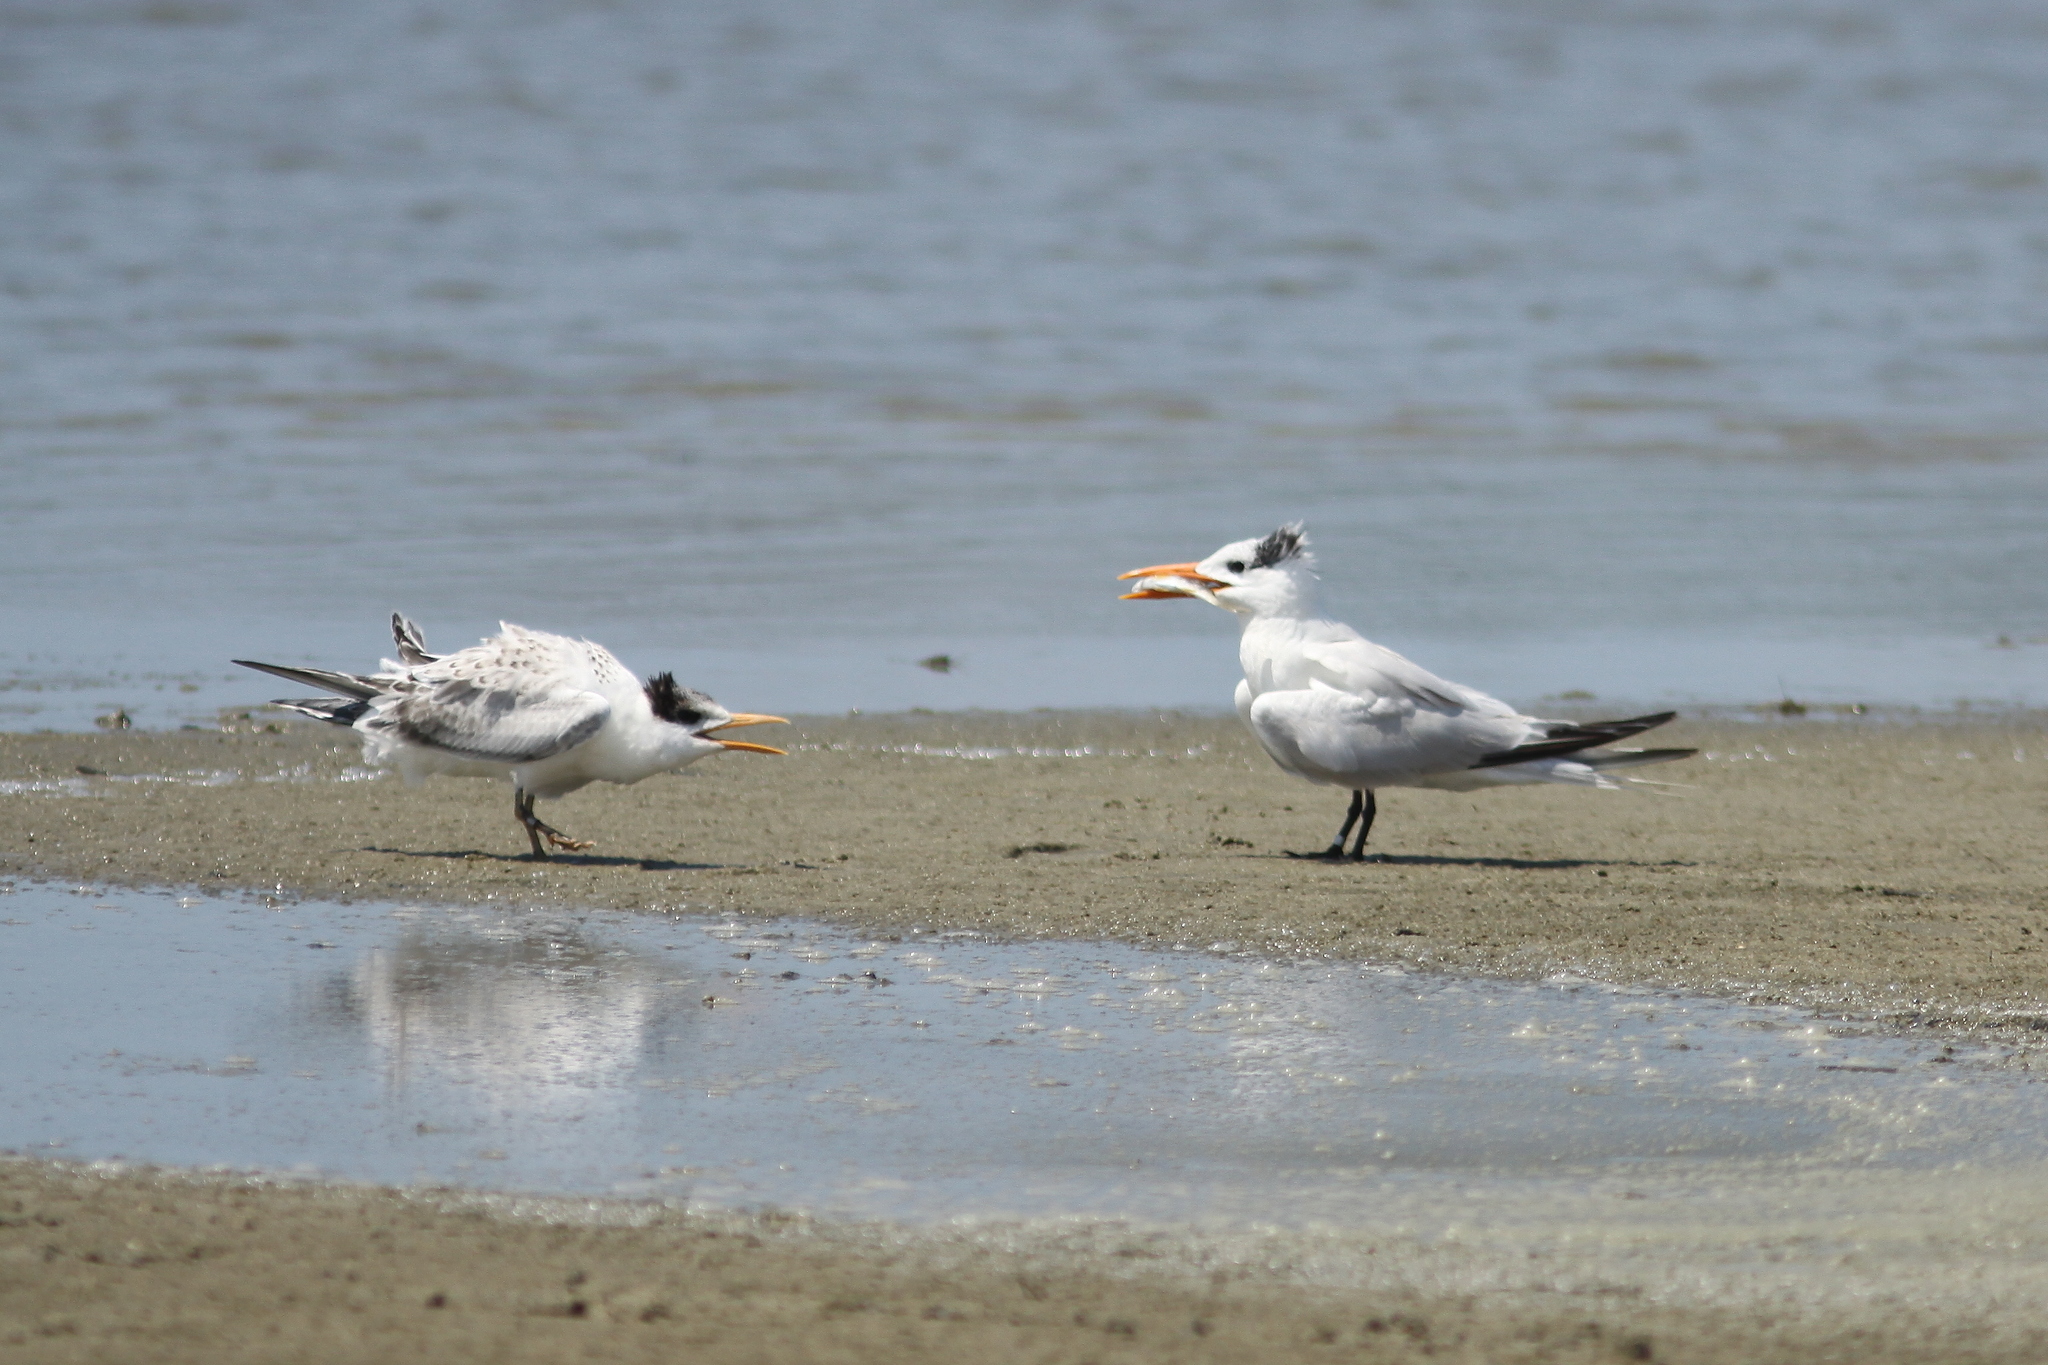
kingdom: Animalia
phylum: Chordata
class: Aves
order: Charadriiformes
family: Laridae
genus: Thalasseus
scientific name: Thalasseus maximus
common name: Royal tern
